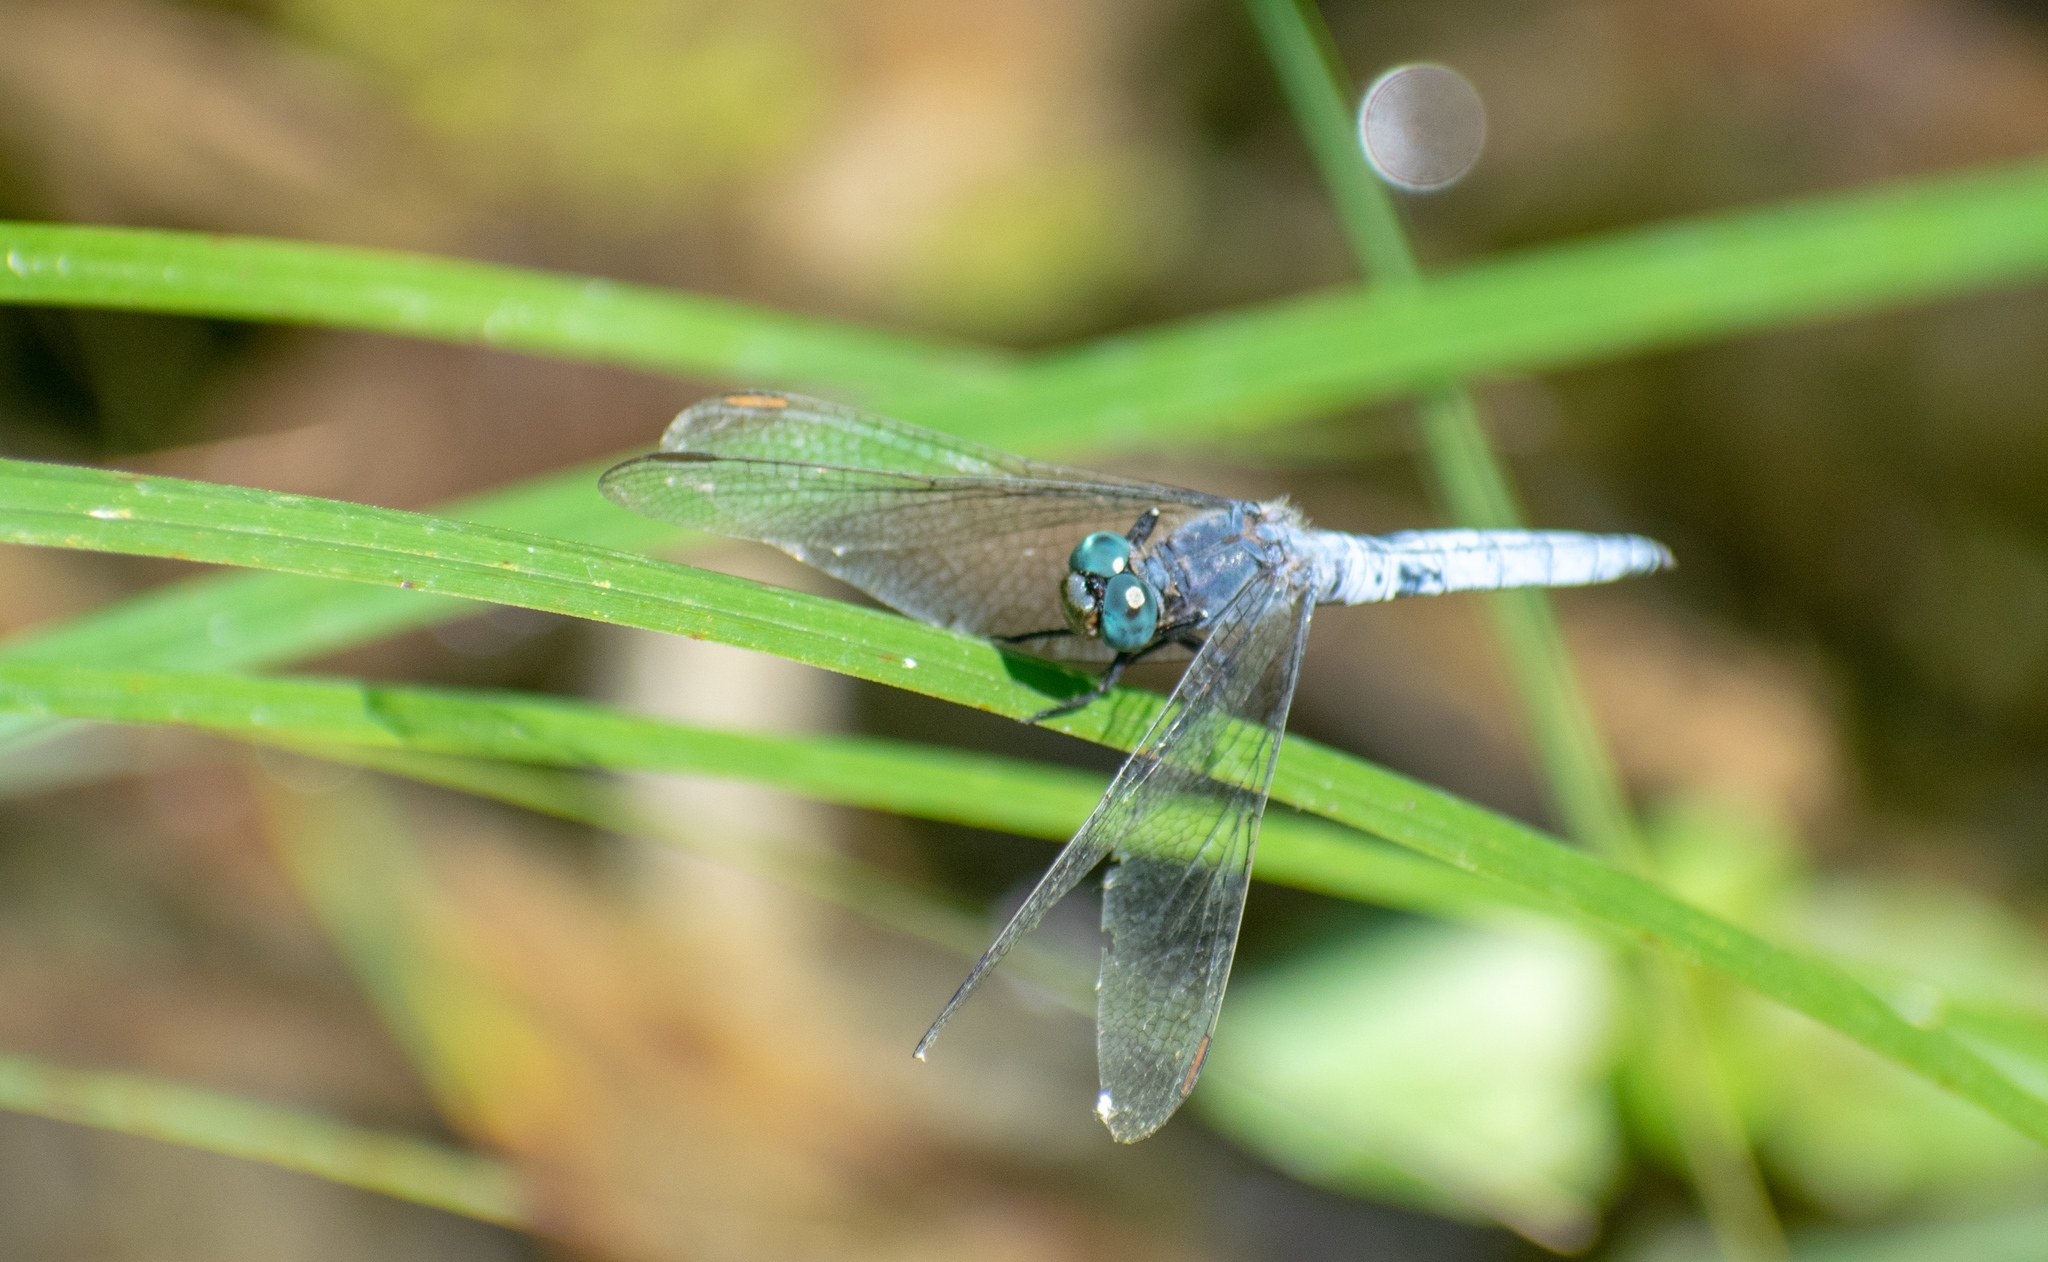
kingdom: Animalia
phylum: Arthropoda
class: Insecta
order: Odonata
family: Libellulidae
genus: Orthetrum
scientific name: Orthetrum coerulescens
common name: Keeled skimmer
